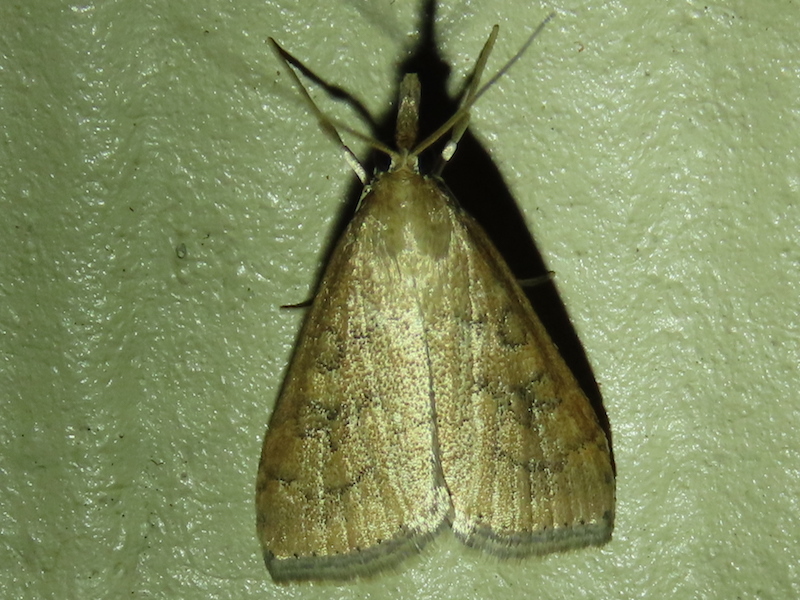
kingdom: Animalia
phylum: Arthropoda
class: Insecta
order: Lepidoptera
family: Crambidae
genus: Udea
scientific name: Udea rubigalis
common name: Celery leaftier moth
